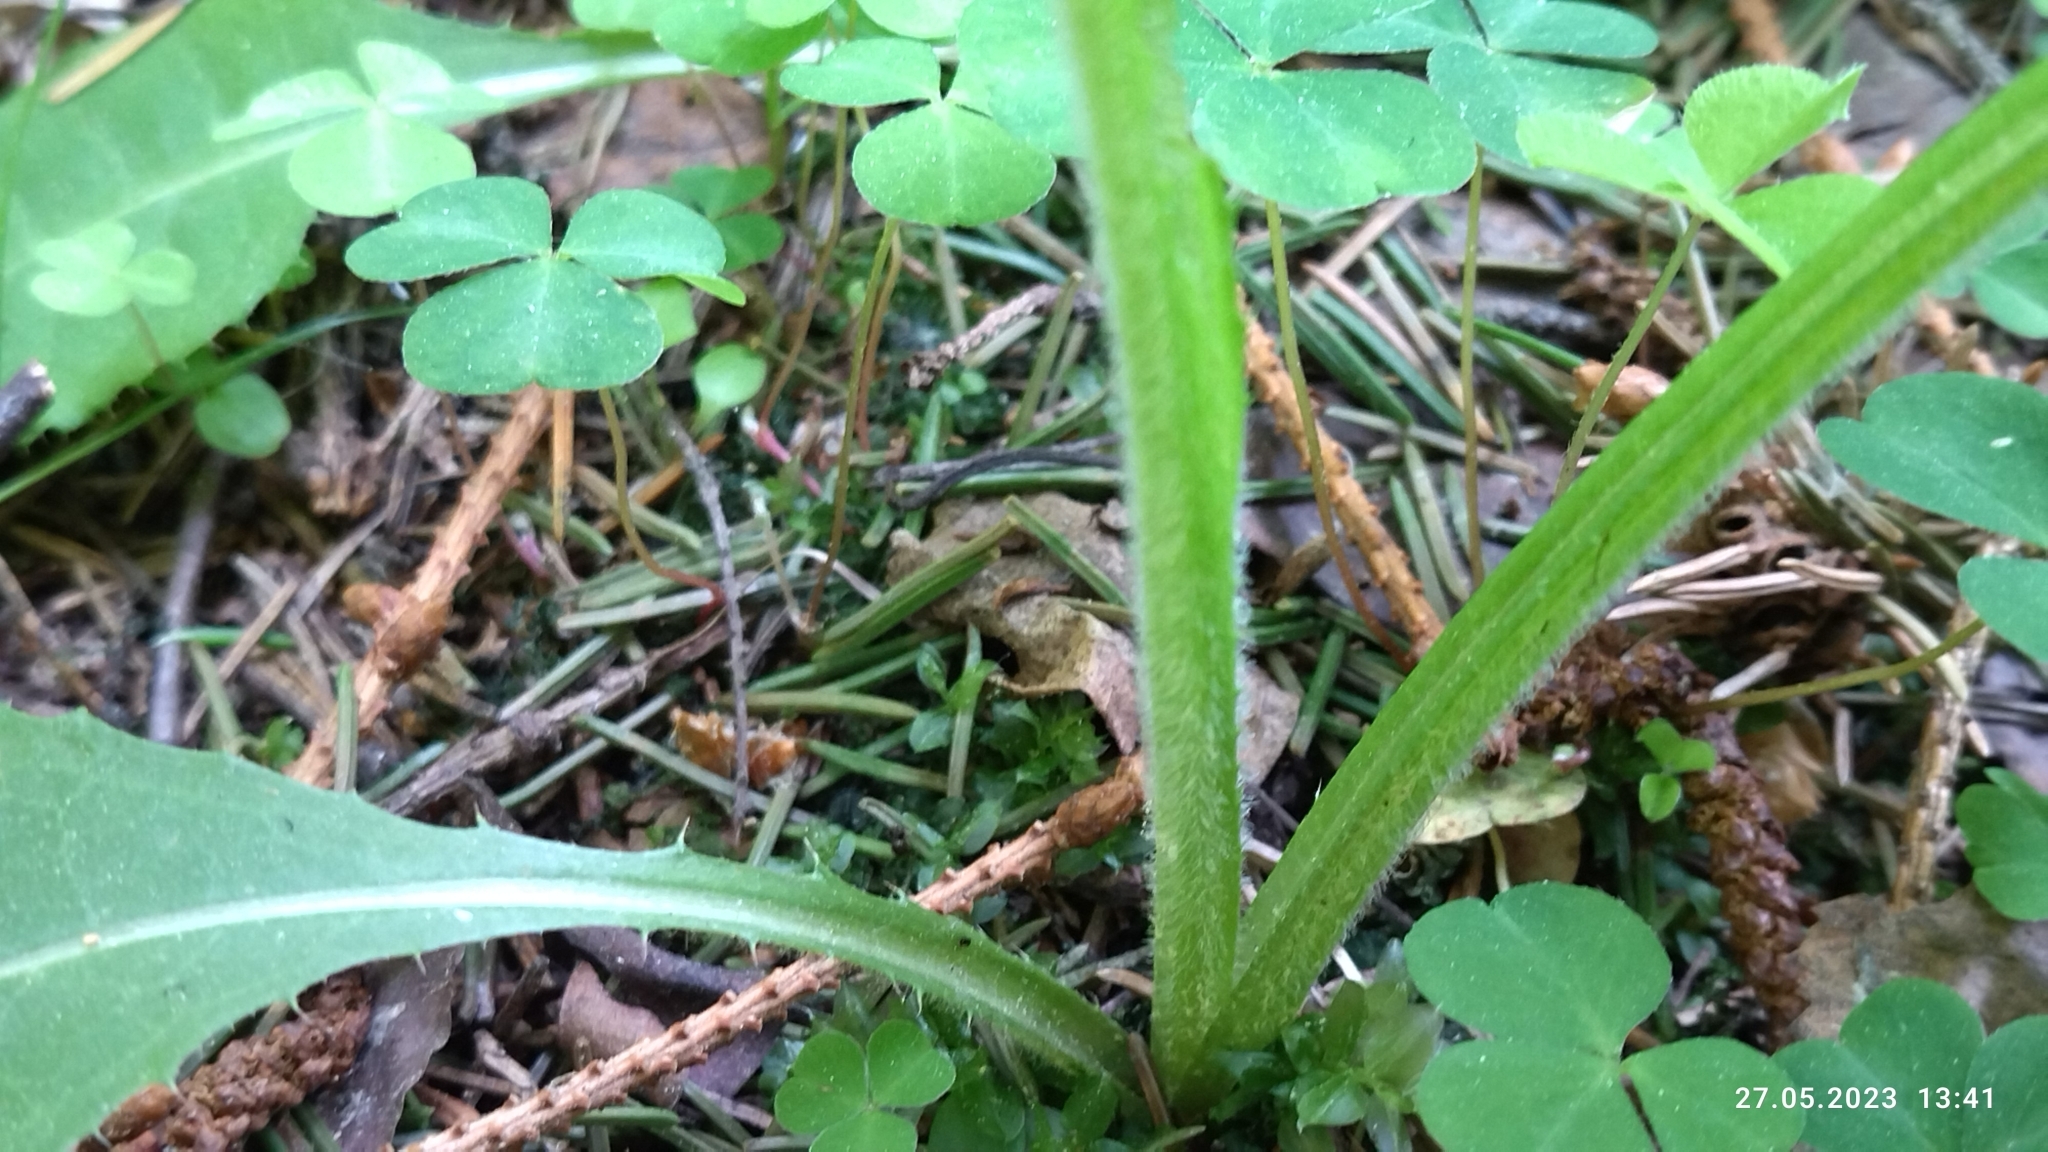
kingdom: Plantae
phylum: Tracheophyta
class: Magnoliopsida
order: Asterales
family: Asteraceae
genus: Cirsium
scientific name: Cirsium heterophyllum
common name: Melancholy thistle
